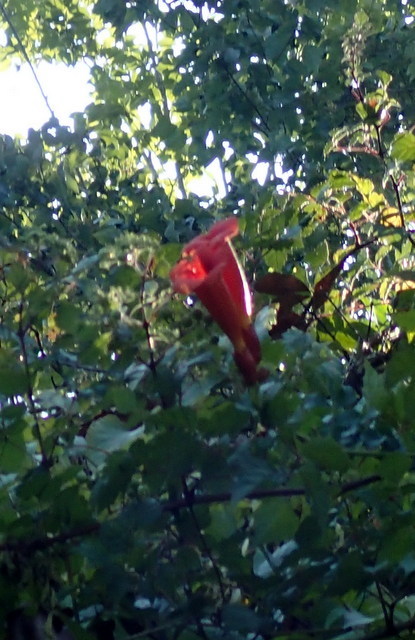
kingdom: Plantae
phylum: Tracheophyta
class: Magnoliopsida
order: Lamiales
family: Bignoniaceae
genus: Campsis
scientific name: Campsis radicans
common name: Trumpet-creeper
